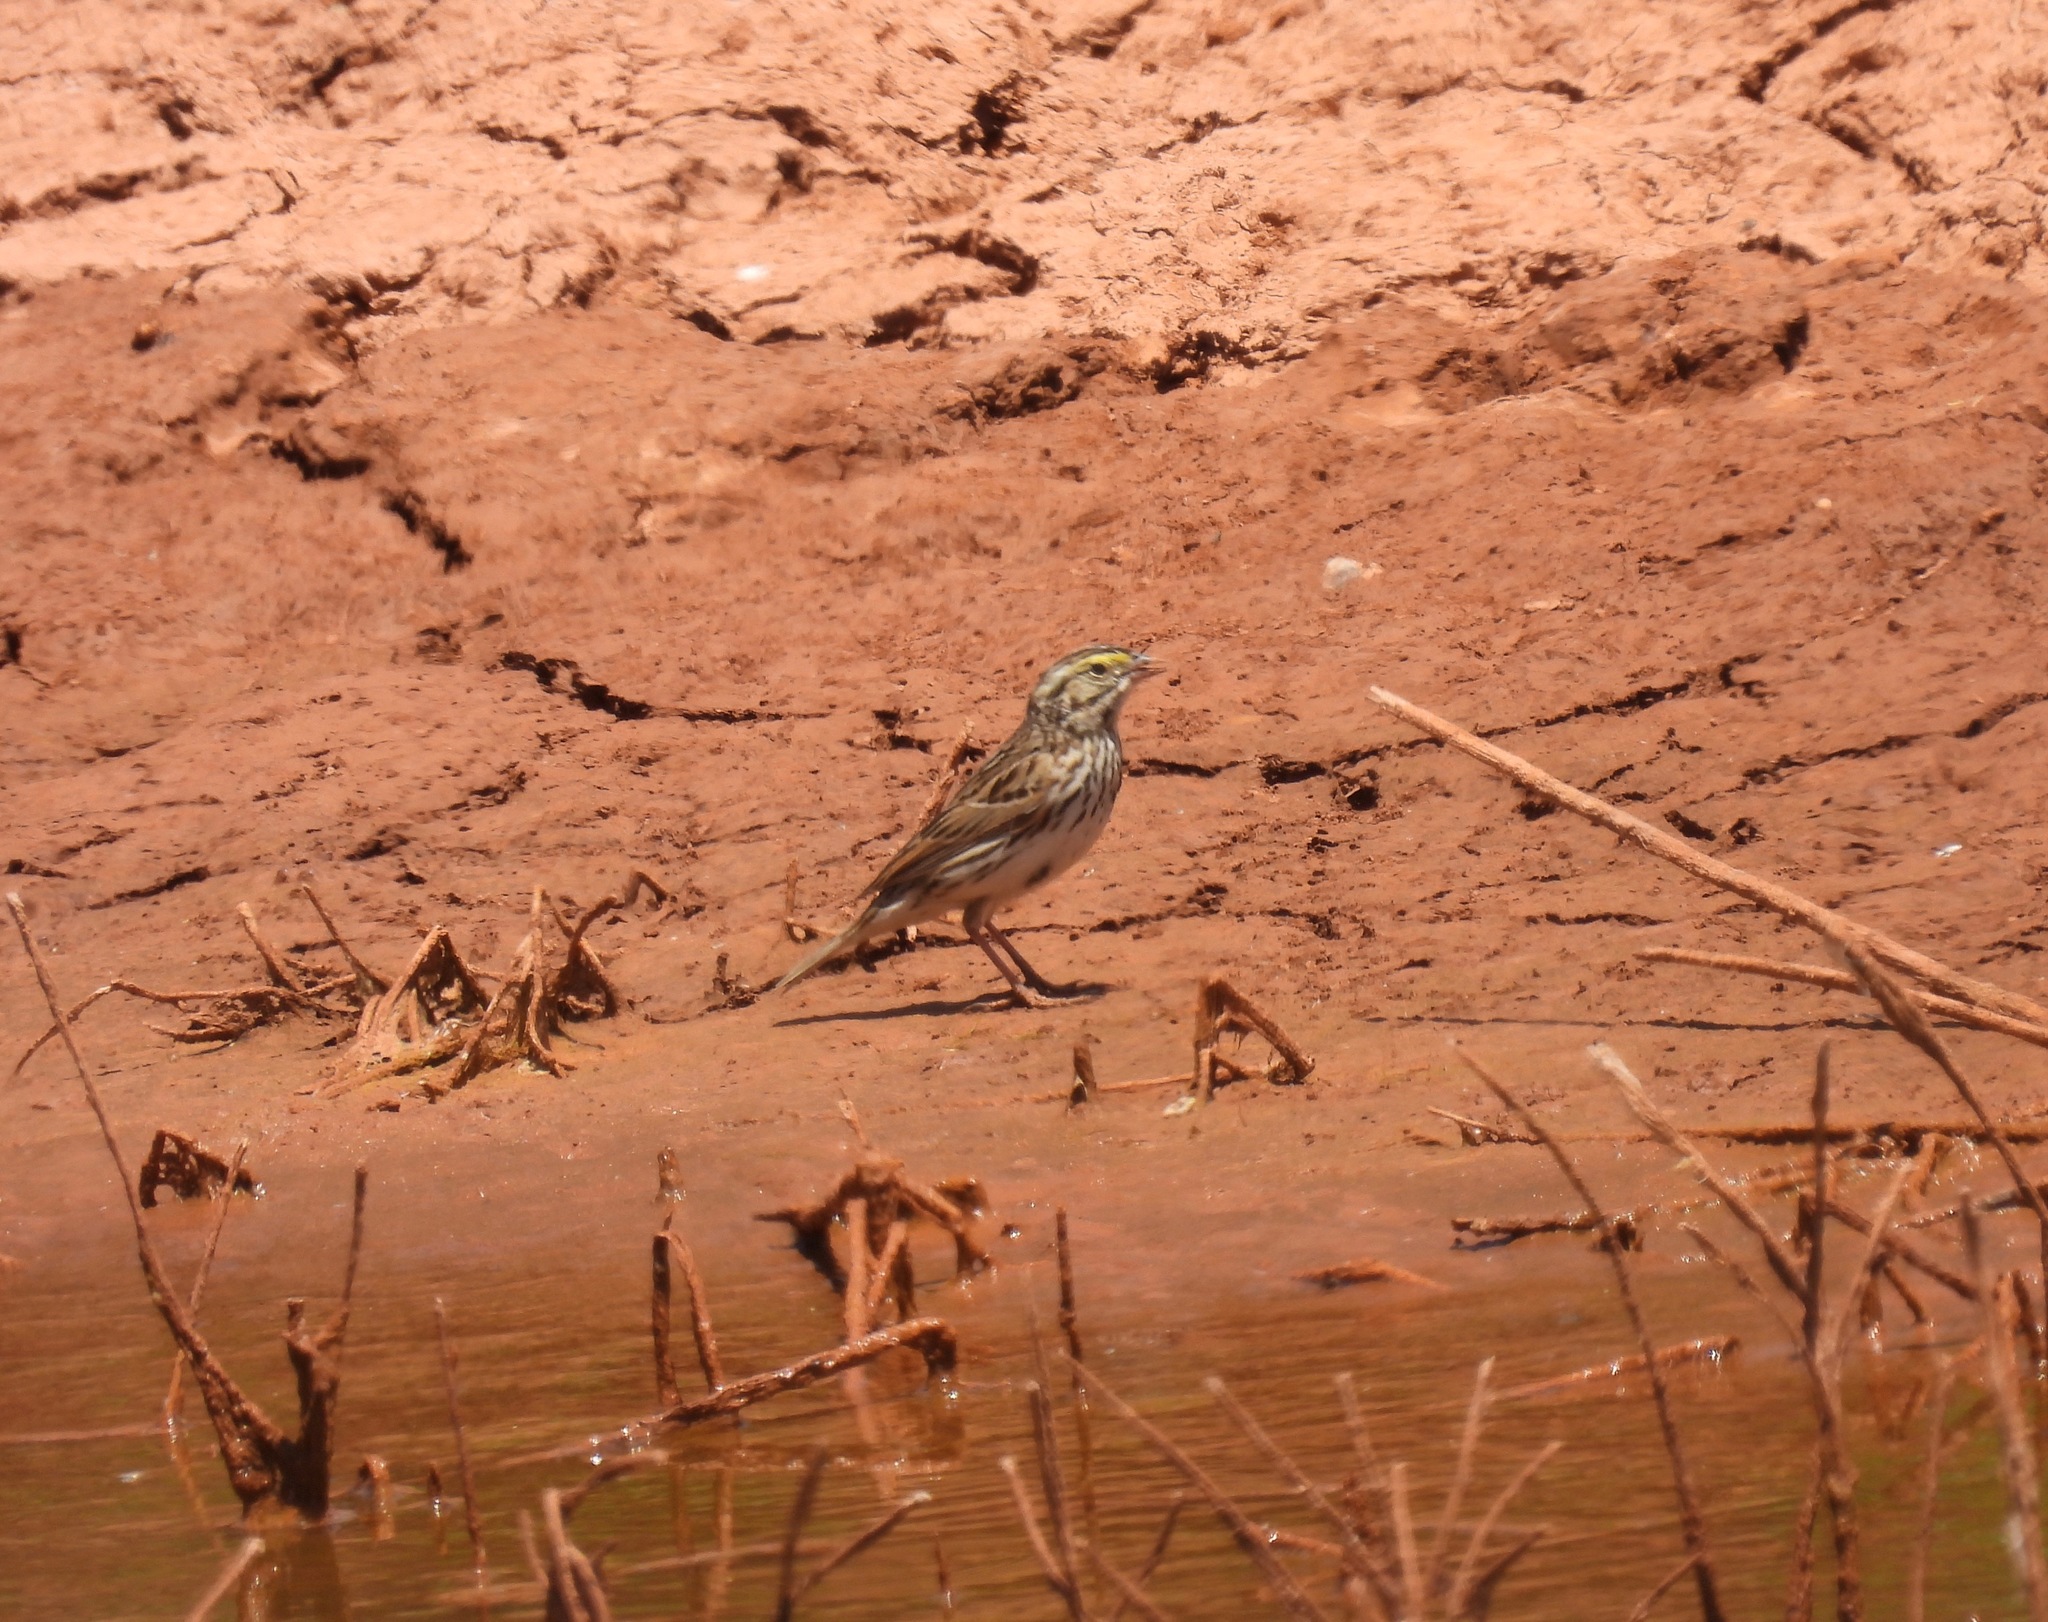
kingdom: Animalia
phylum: Chordata
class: Aves
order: Passeriformes
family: Passerellidae
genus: Passerculus
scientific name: Passerculus sandwichensis
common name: Savannah sparrow
